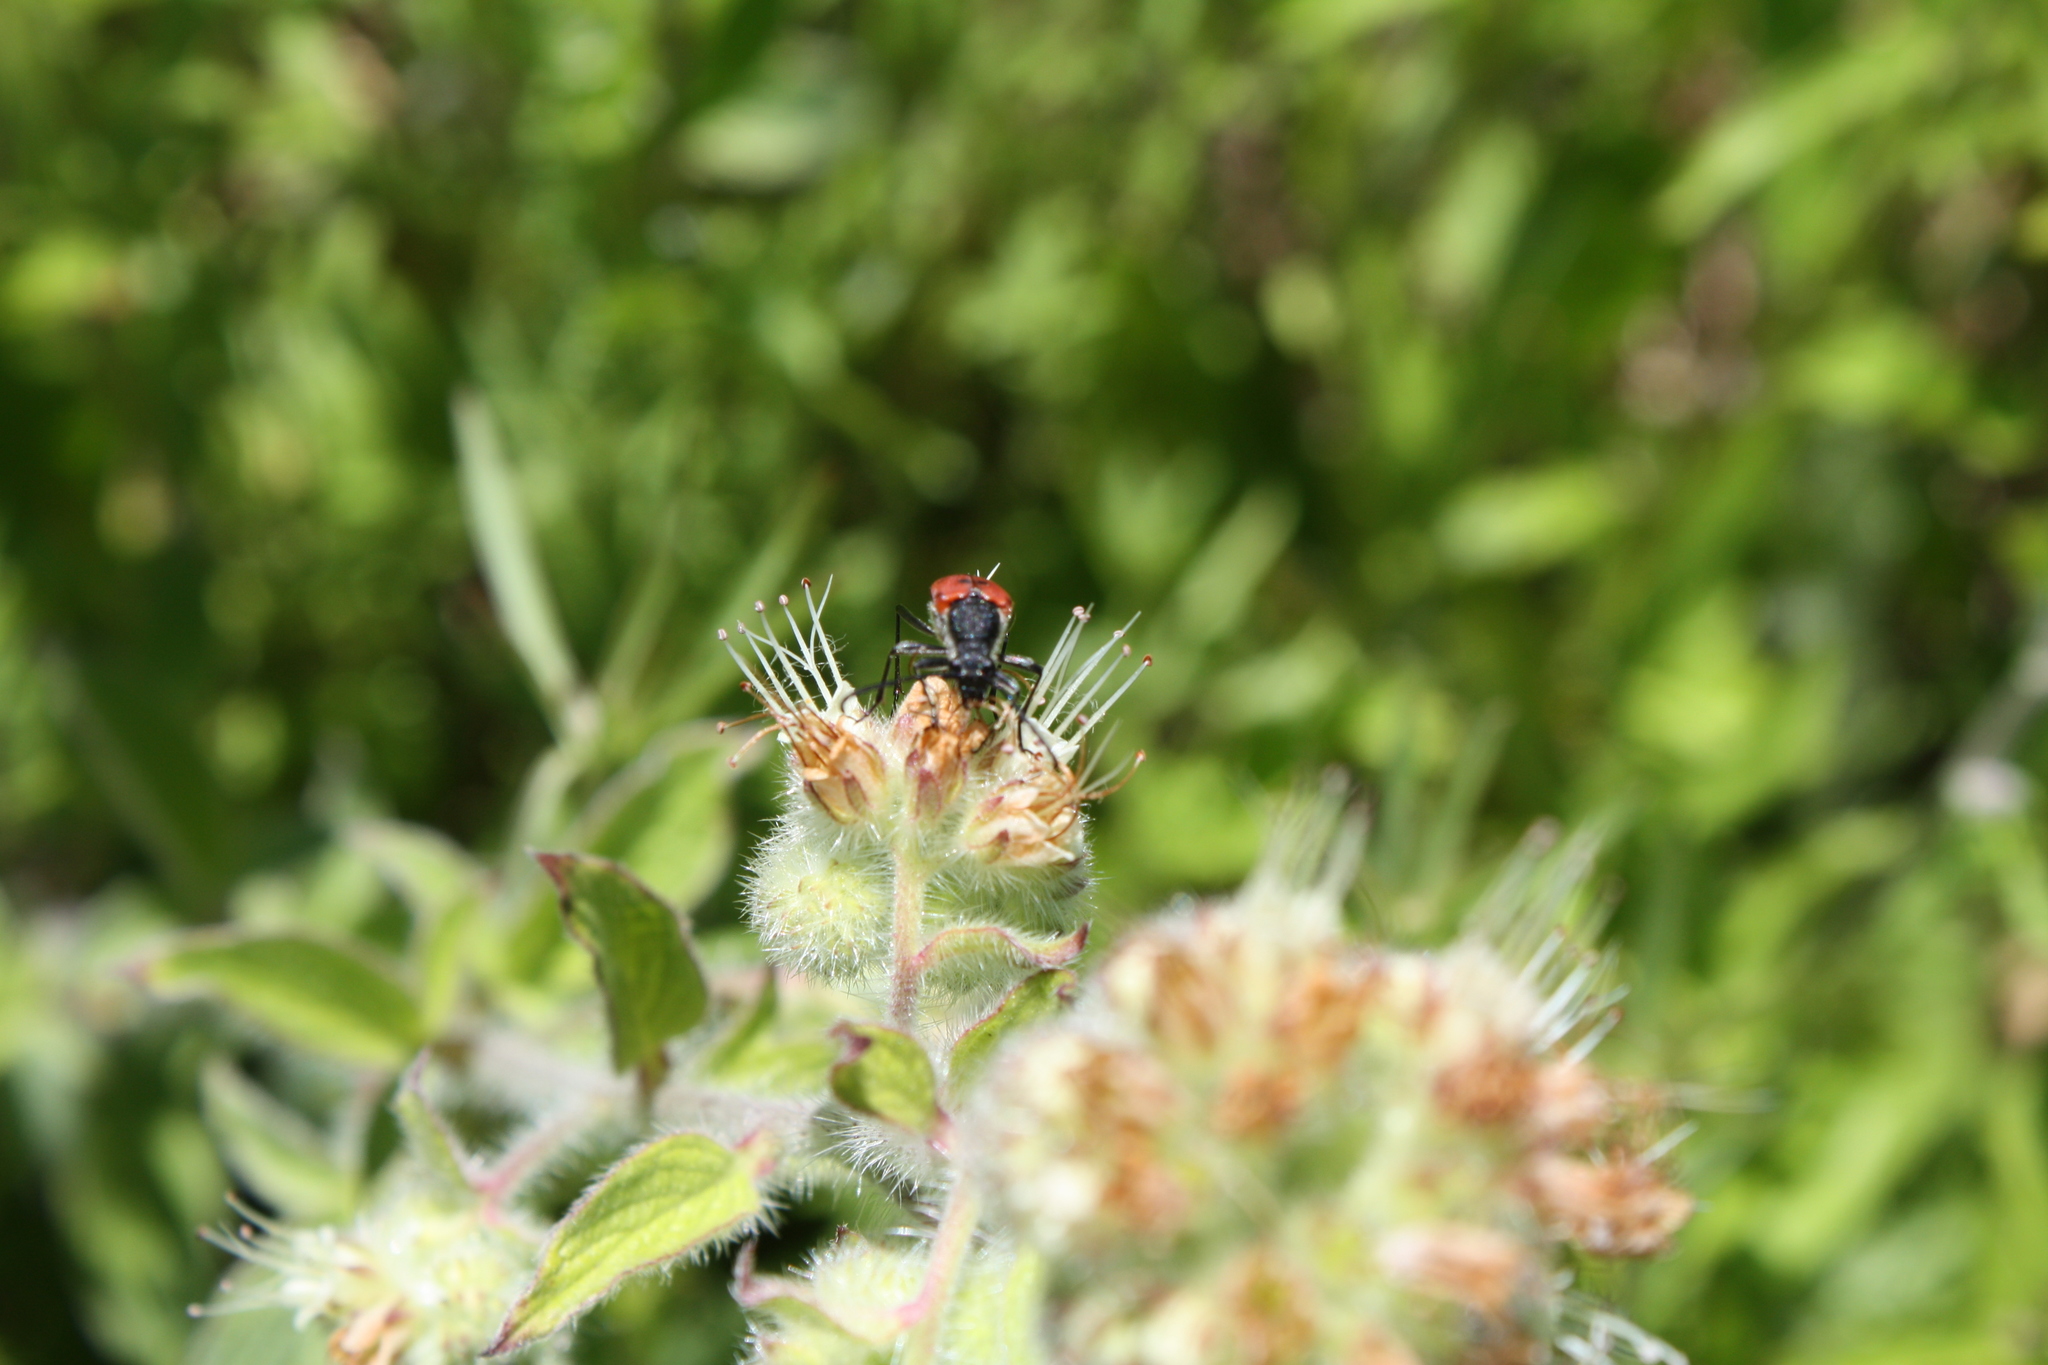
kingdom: Animalia
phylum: Arthropoda
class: Insecta
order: Coleoptera
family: Cerambycidae
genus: Anastrangalia
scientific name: Anastrangalia laetifica
